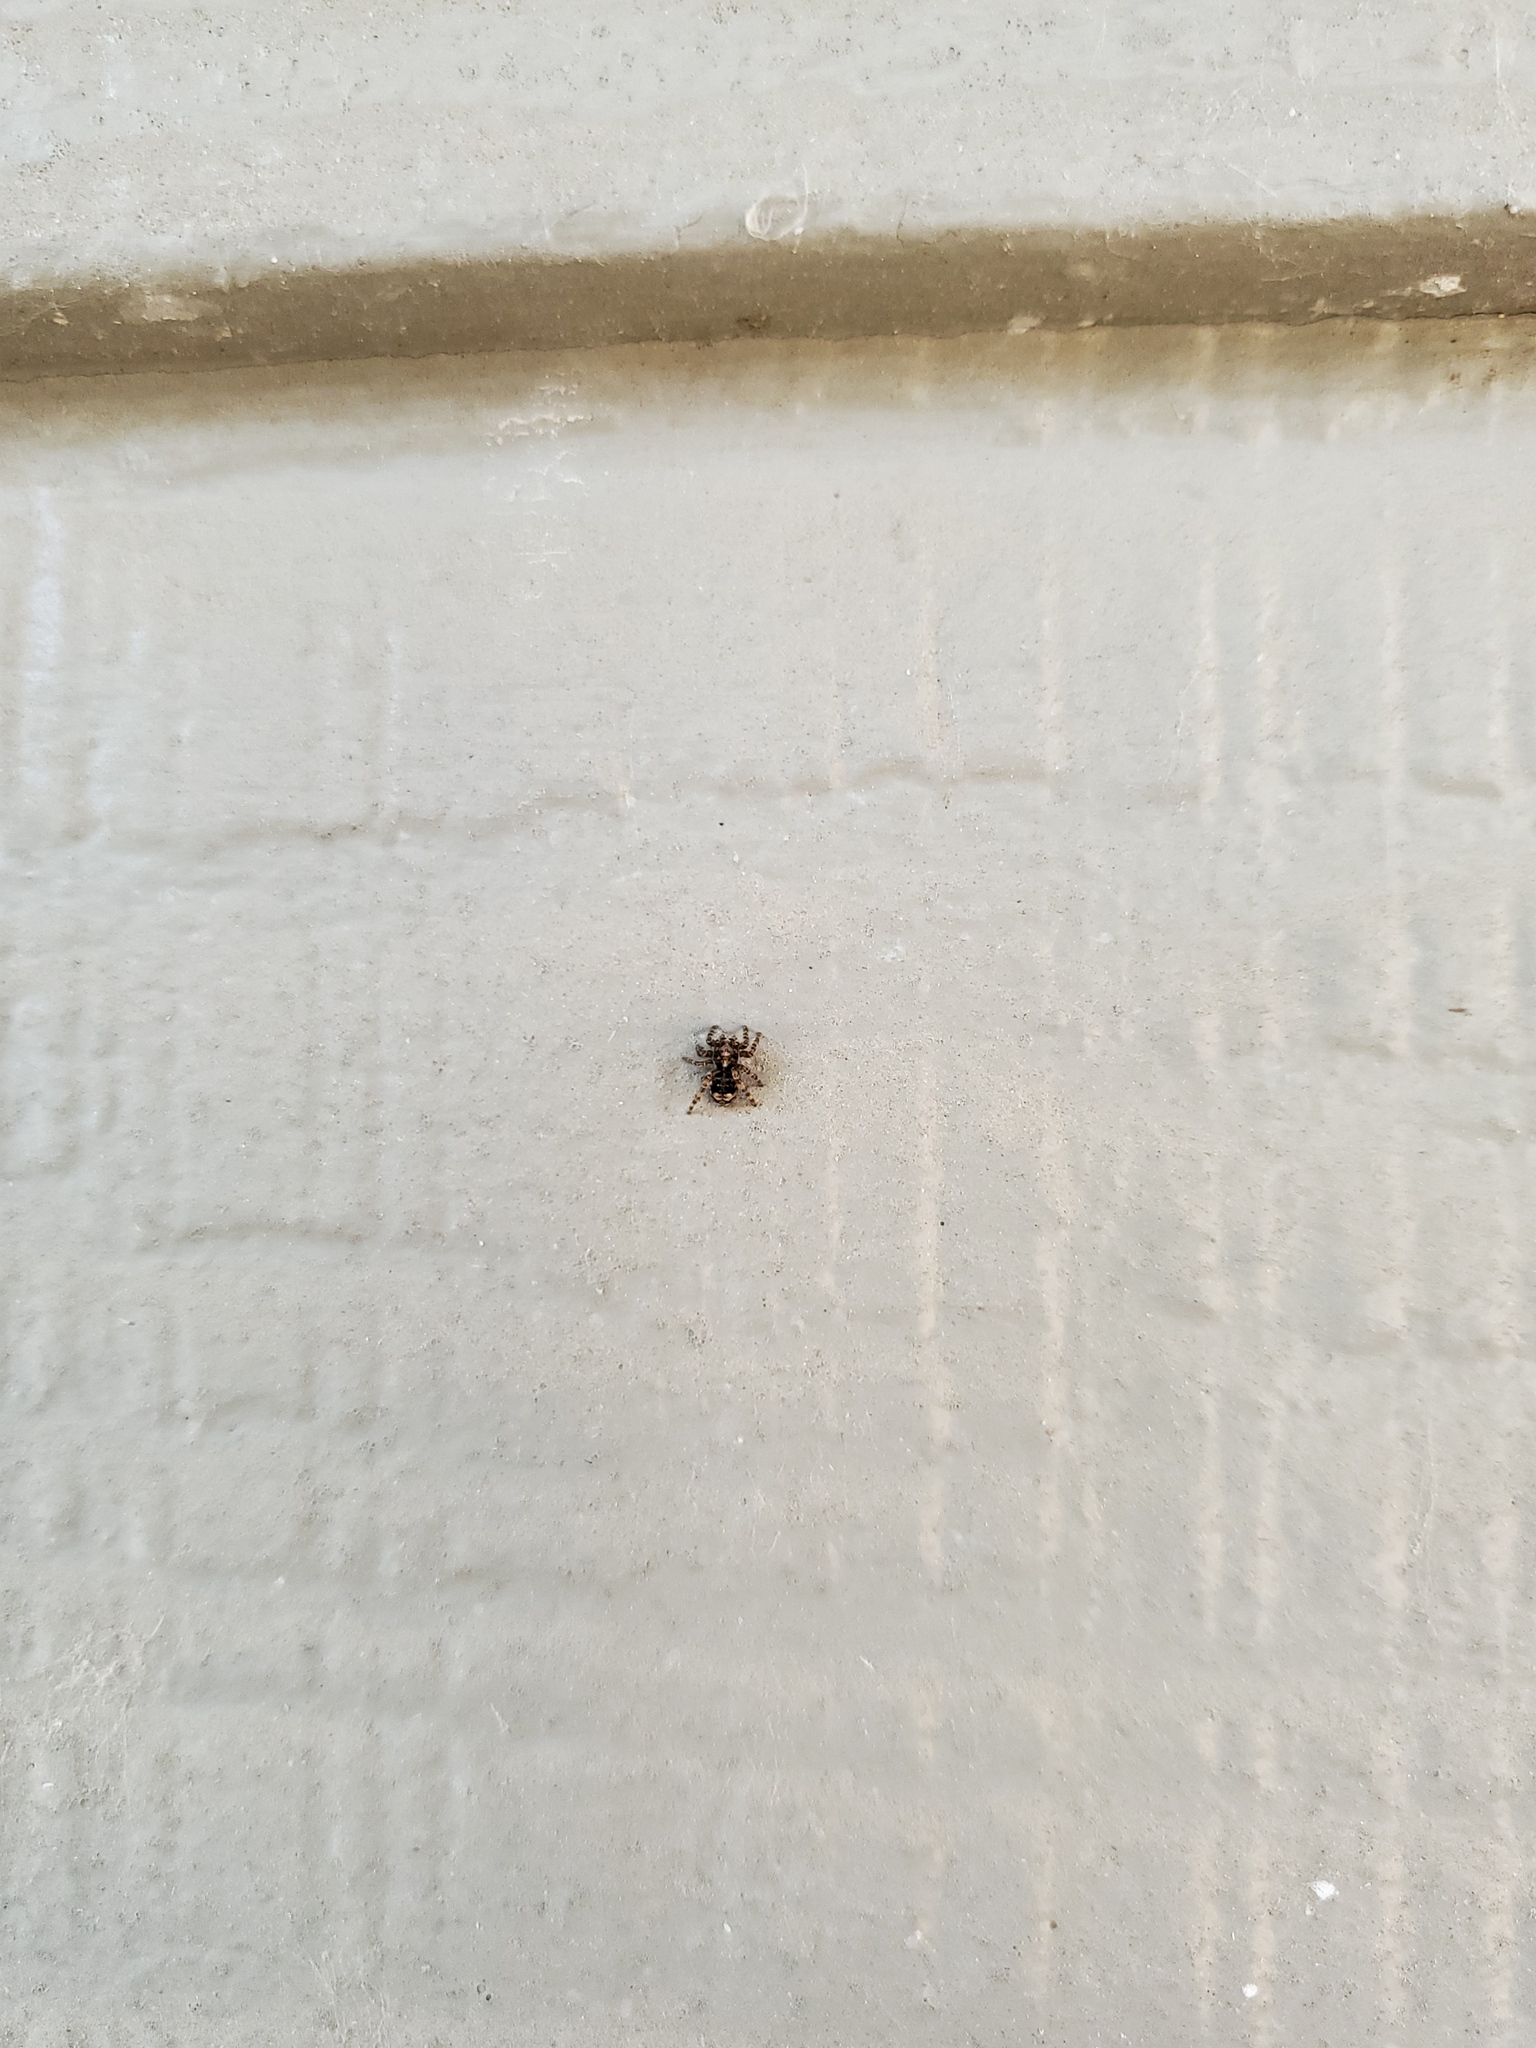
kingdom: Animalia
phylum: Arthropoda
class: Arachnida
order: Araneae
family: Salticidae
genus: Attulus
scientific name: Attulus fasciger
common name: Asiatic wall jumping spider
